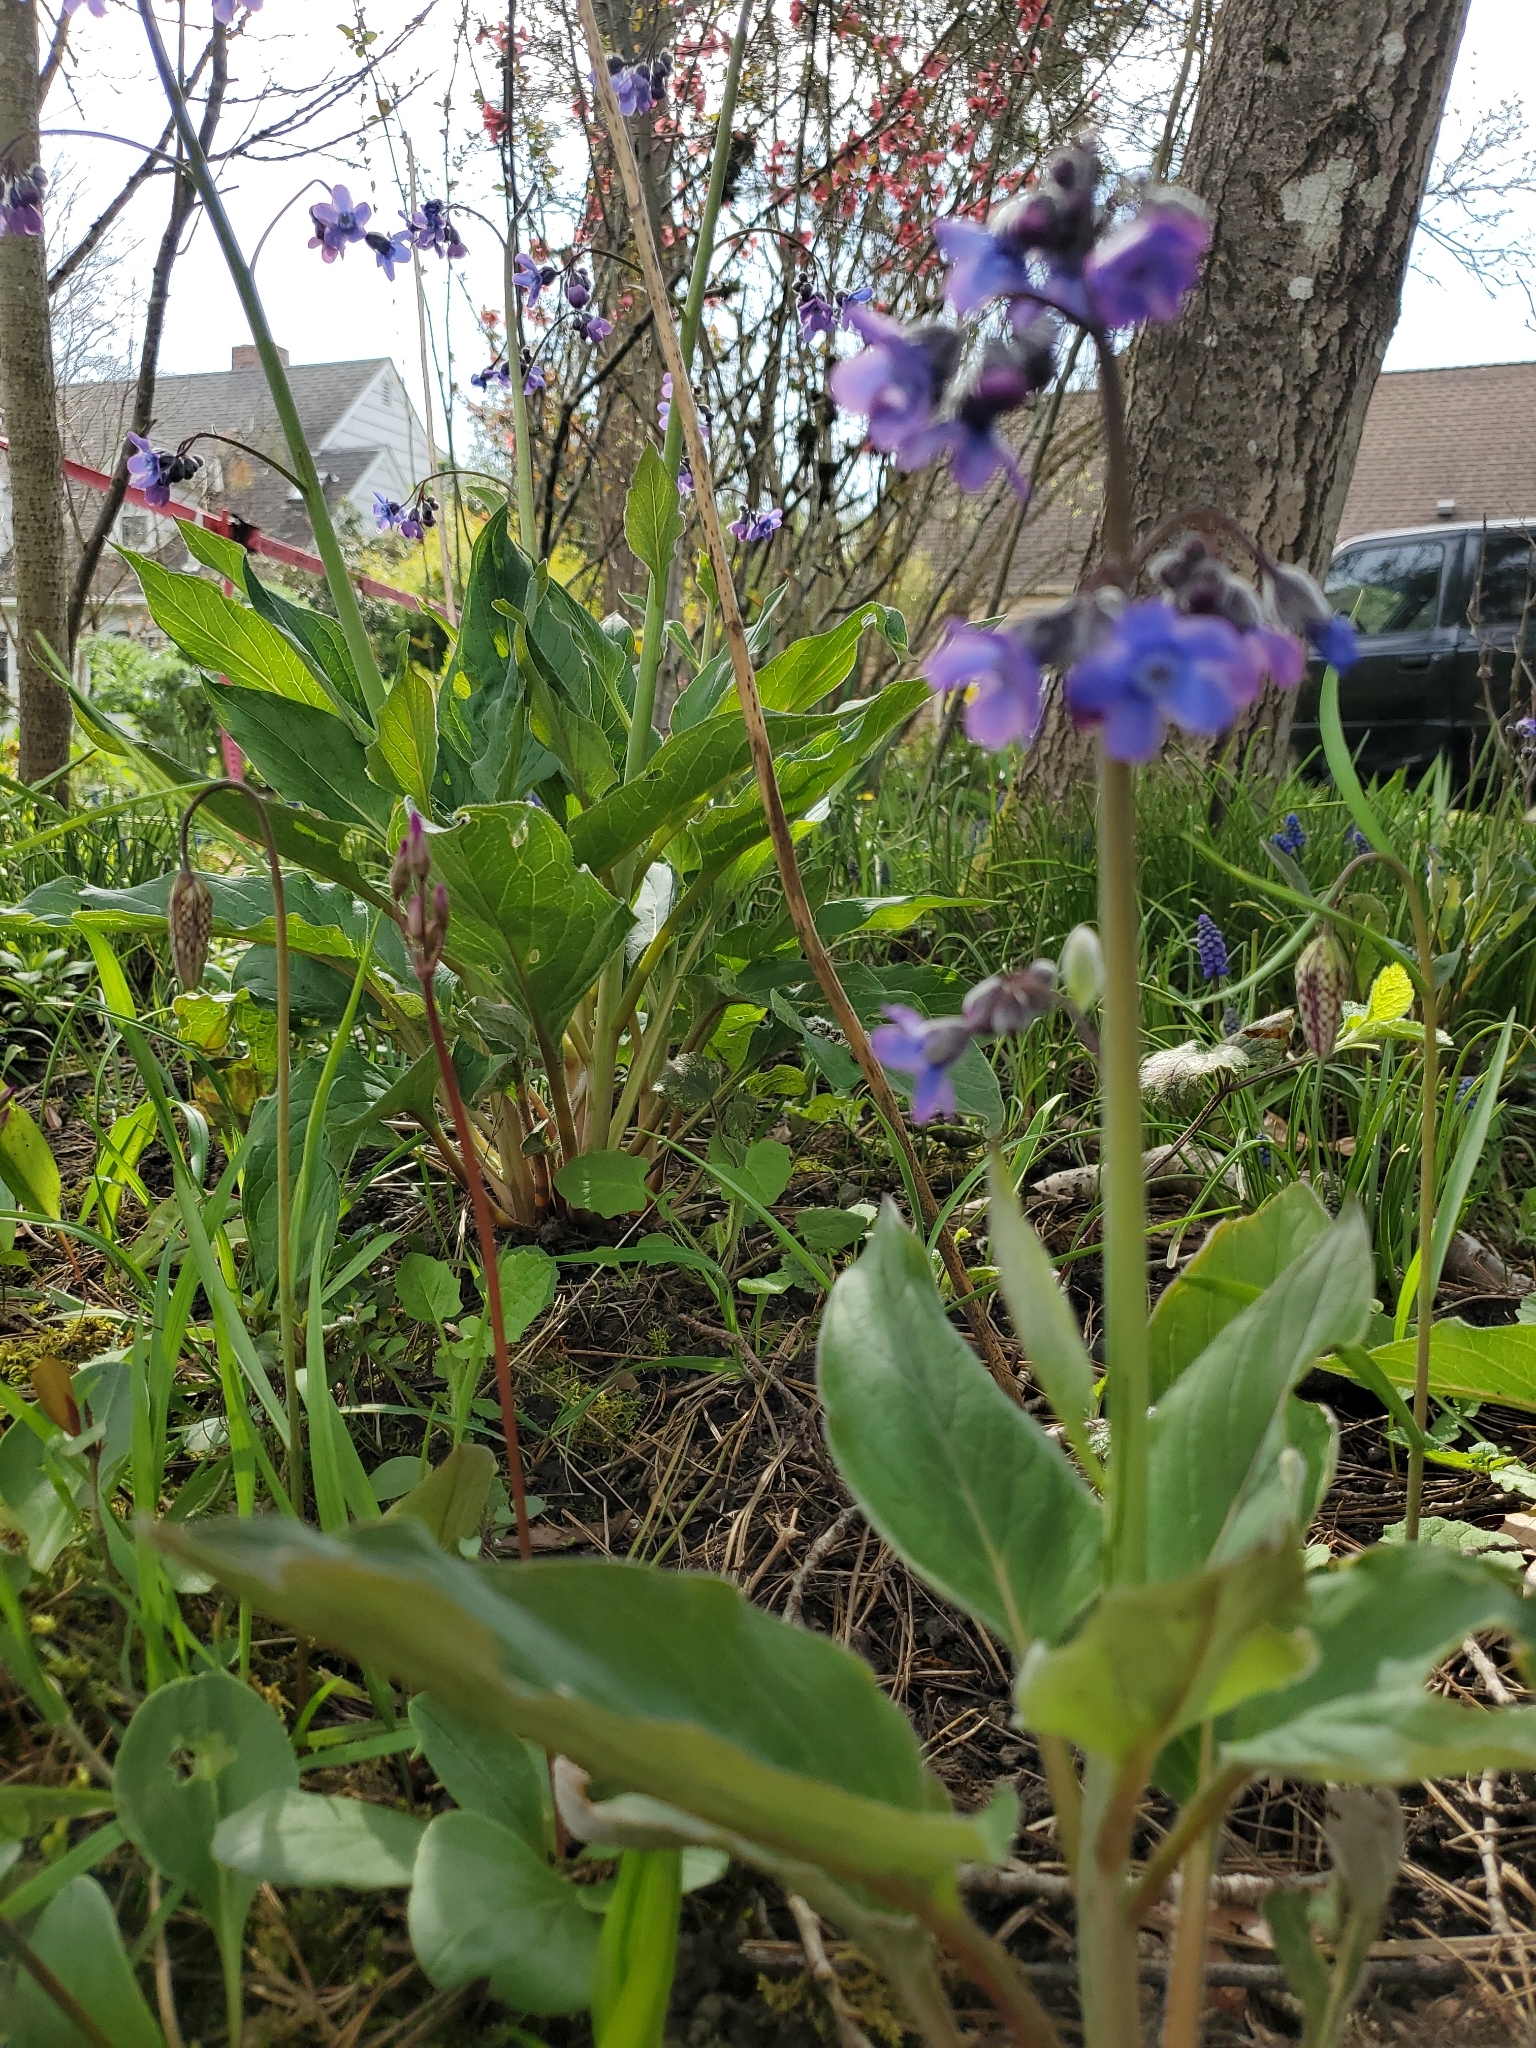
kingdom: Plantae
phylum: Tracheophyta
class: Magnoliopsida
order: Boraginales
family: Boraginaceae
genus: Adelinia
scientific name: Adelinia grande
